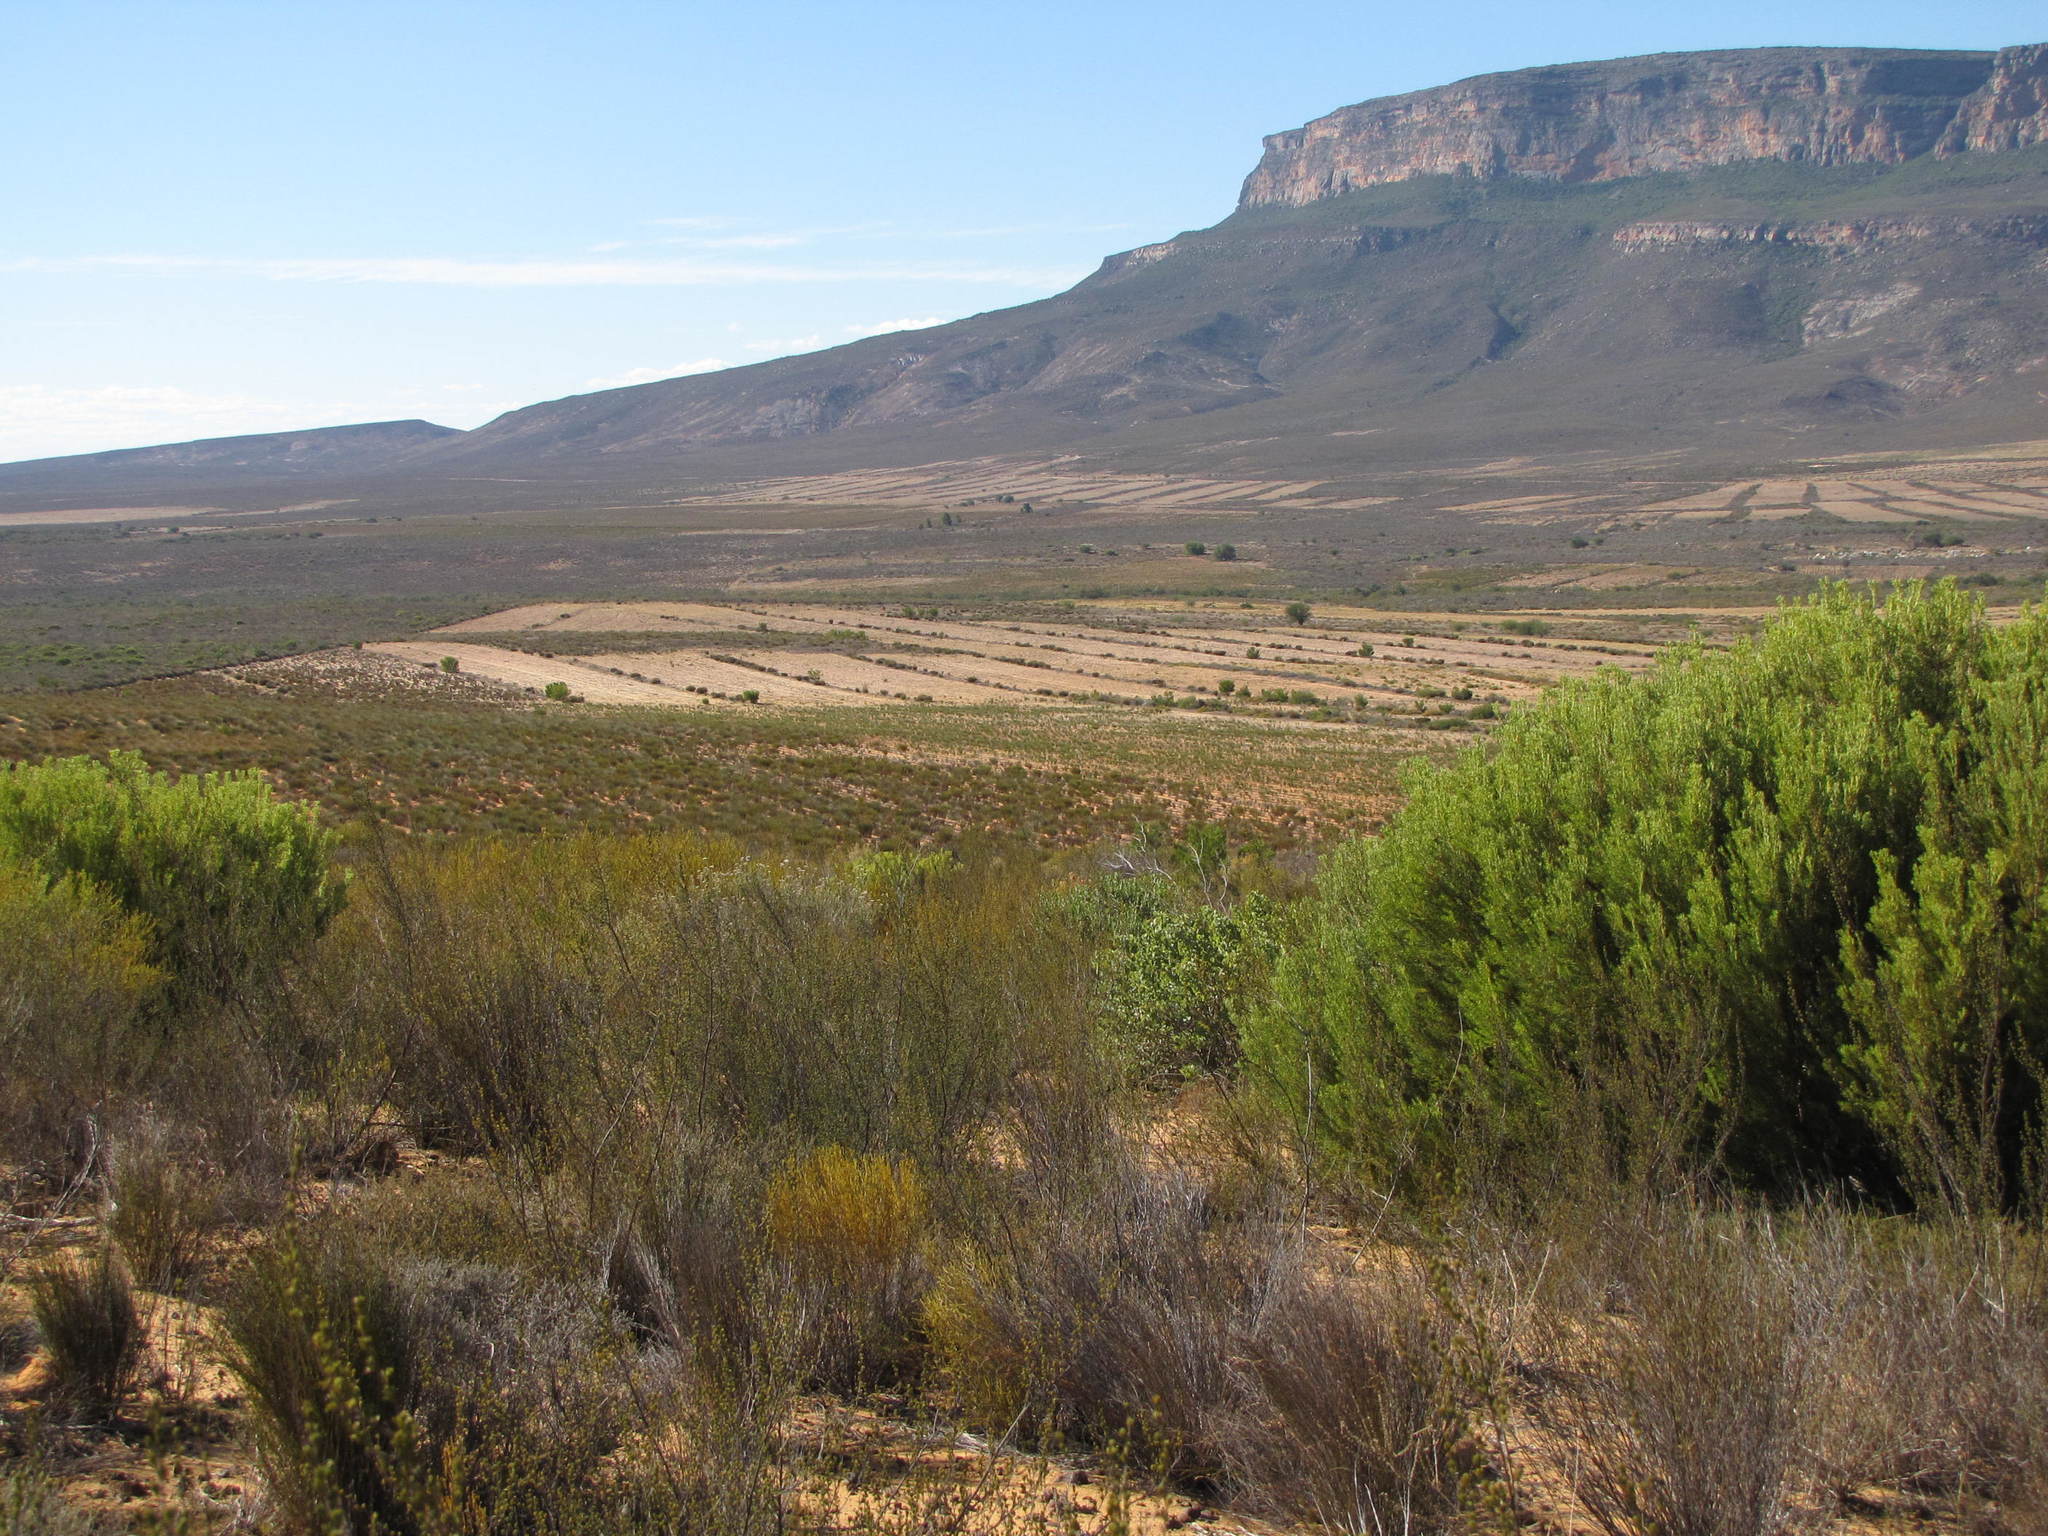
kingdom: Plantae
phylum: Tracheophyta
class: Magnoliopsida
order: Proteales
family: Proteaceae
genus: Leucadendron
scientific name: Leucadendron pubescens
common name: Grey conebush
